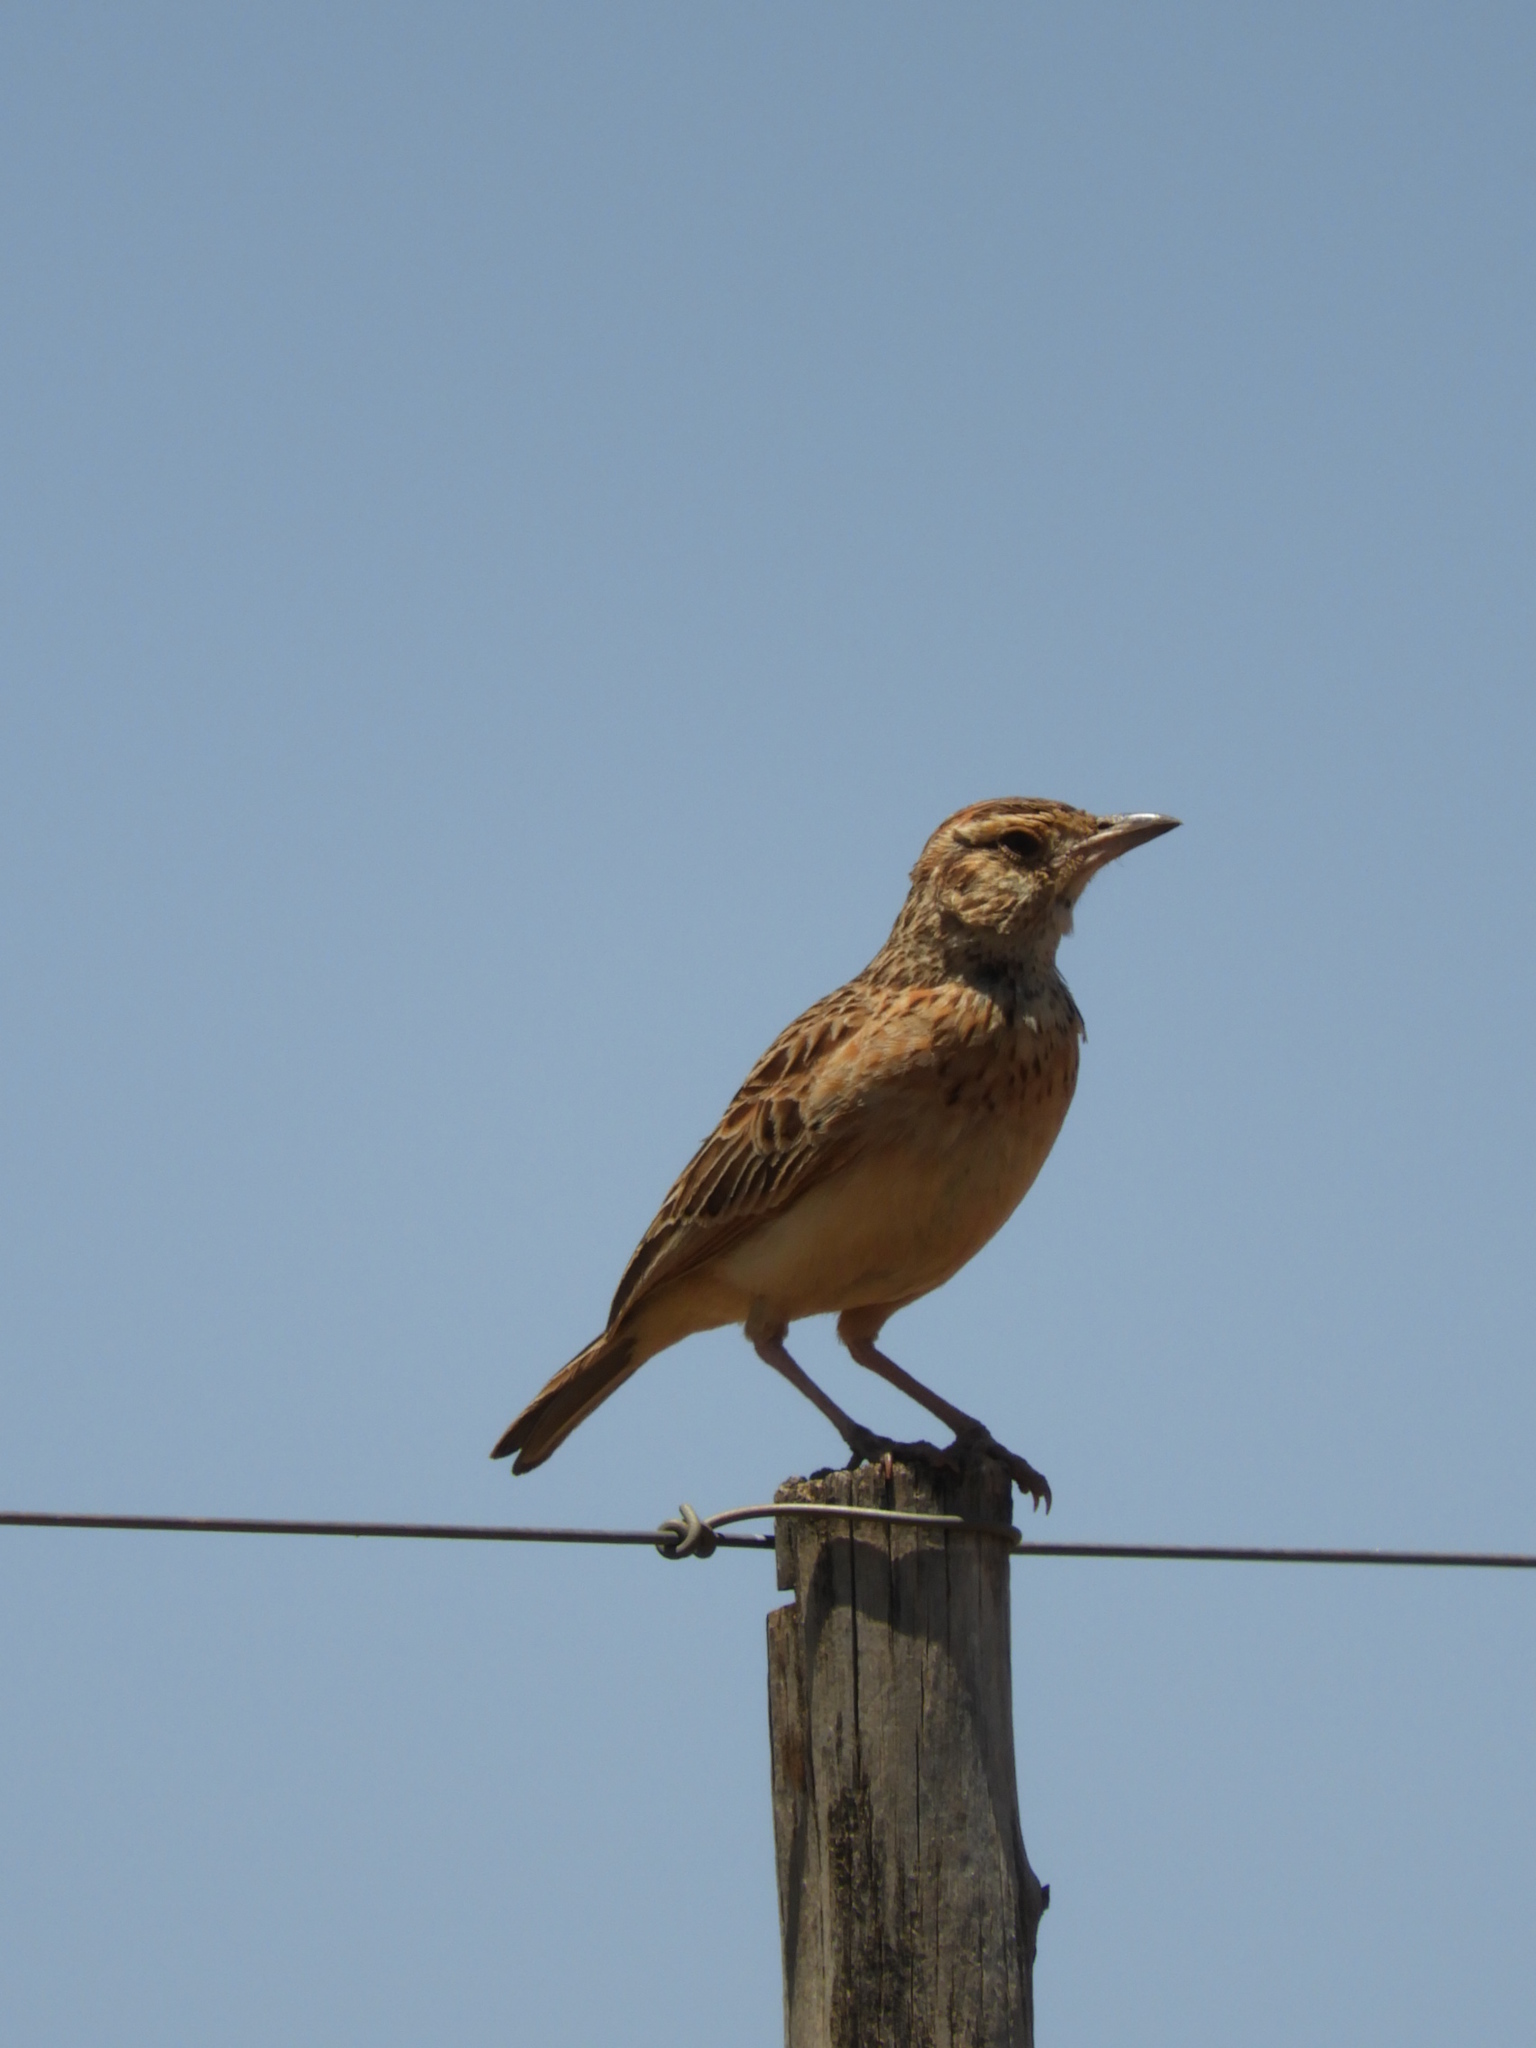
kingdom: Animalia
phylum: Chordata
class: Aves
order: Passeriformes
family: Alaudidae
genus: Mirafra
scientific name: Mirafra africana
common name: Rufous-naped lark
